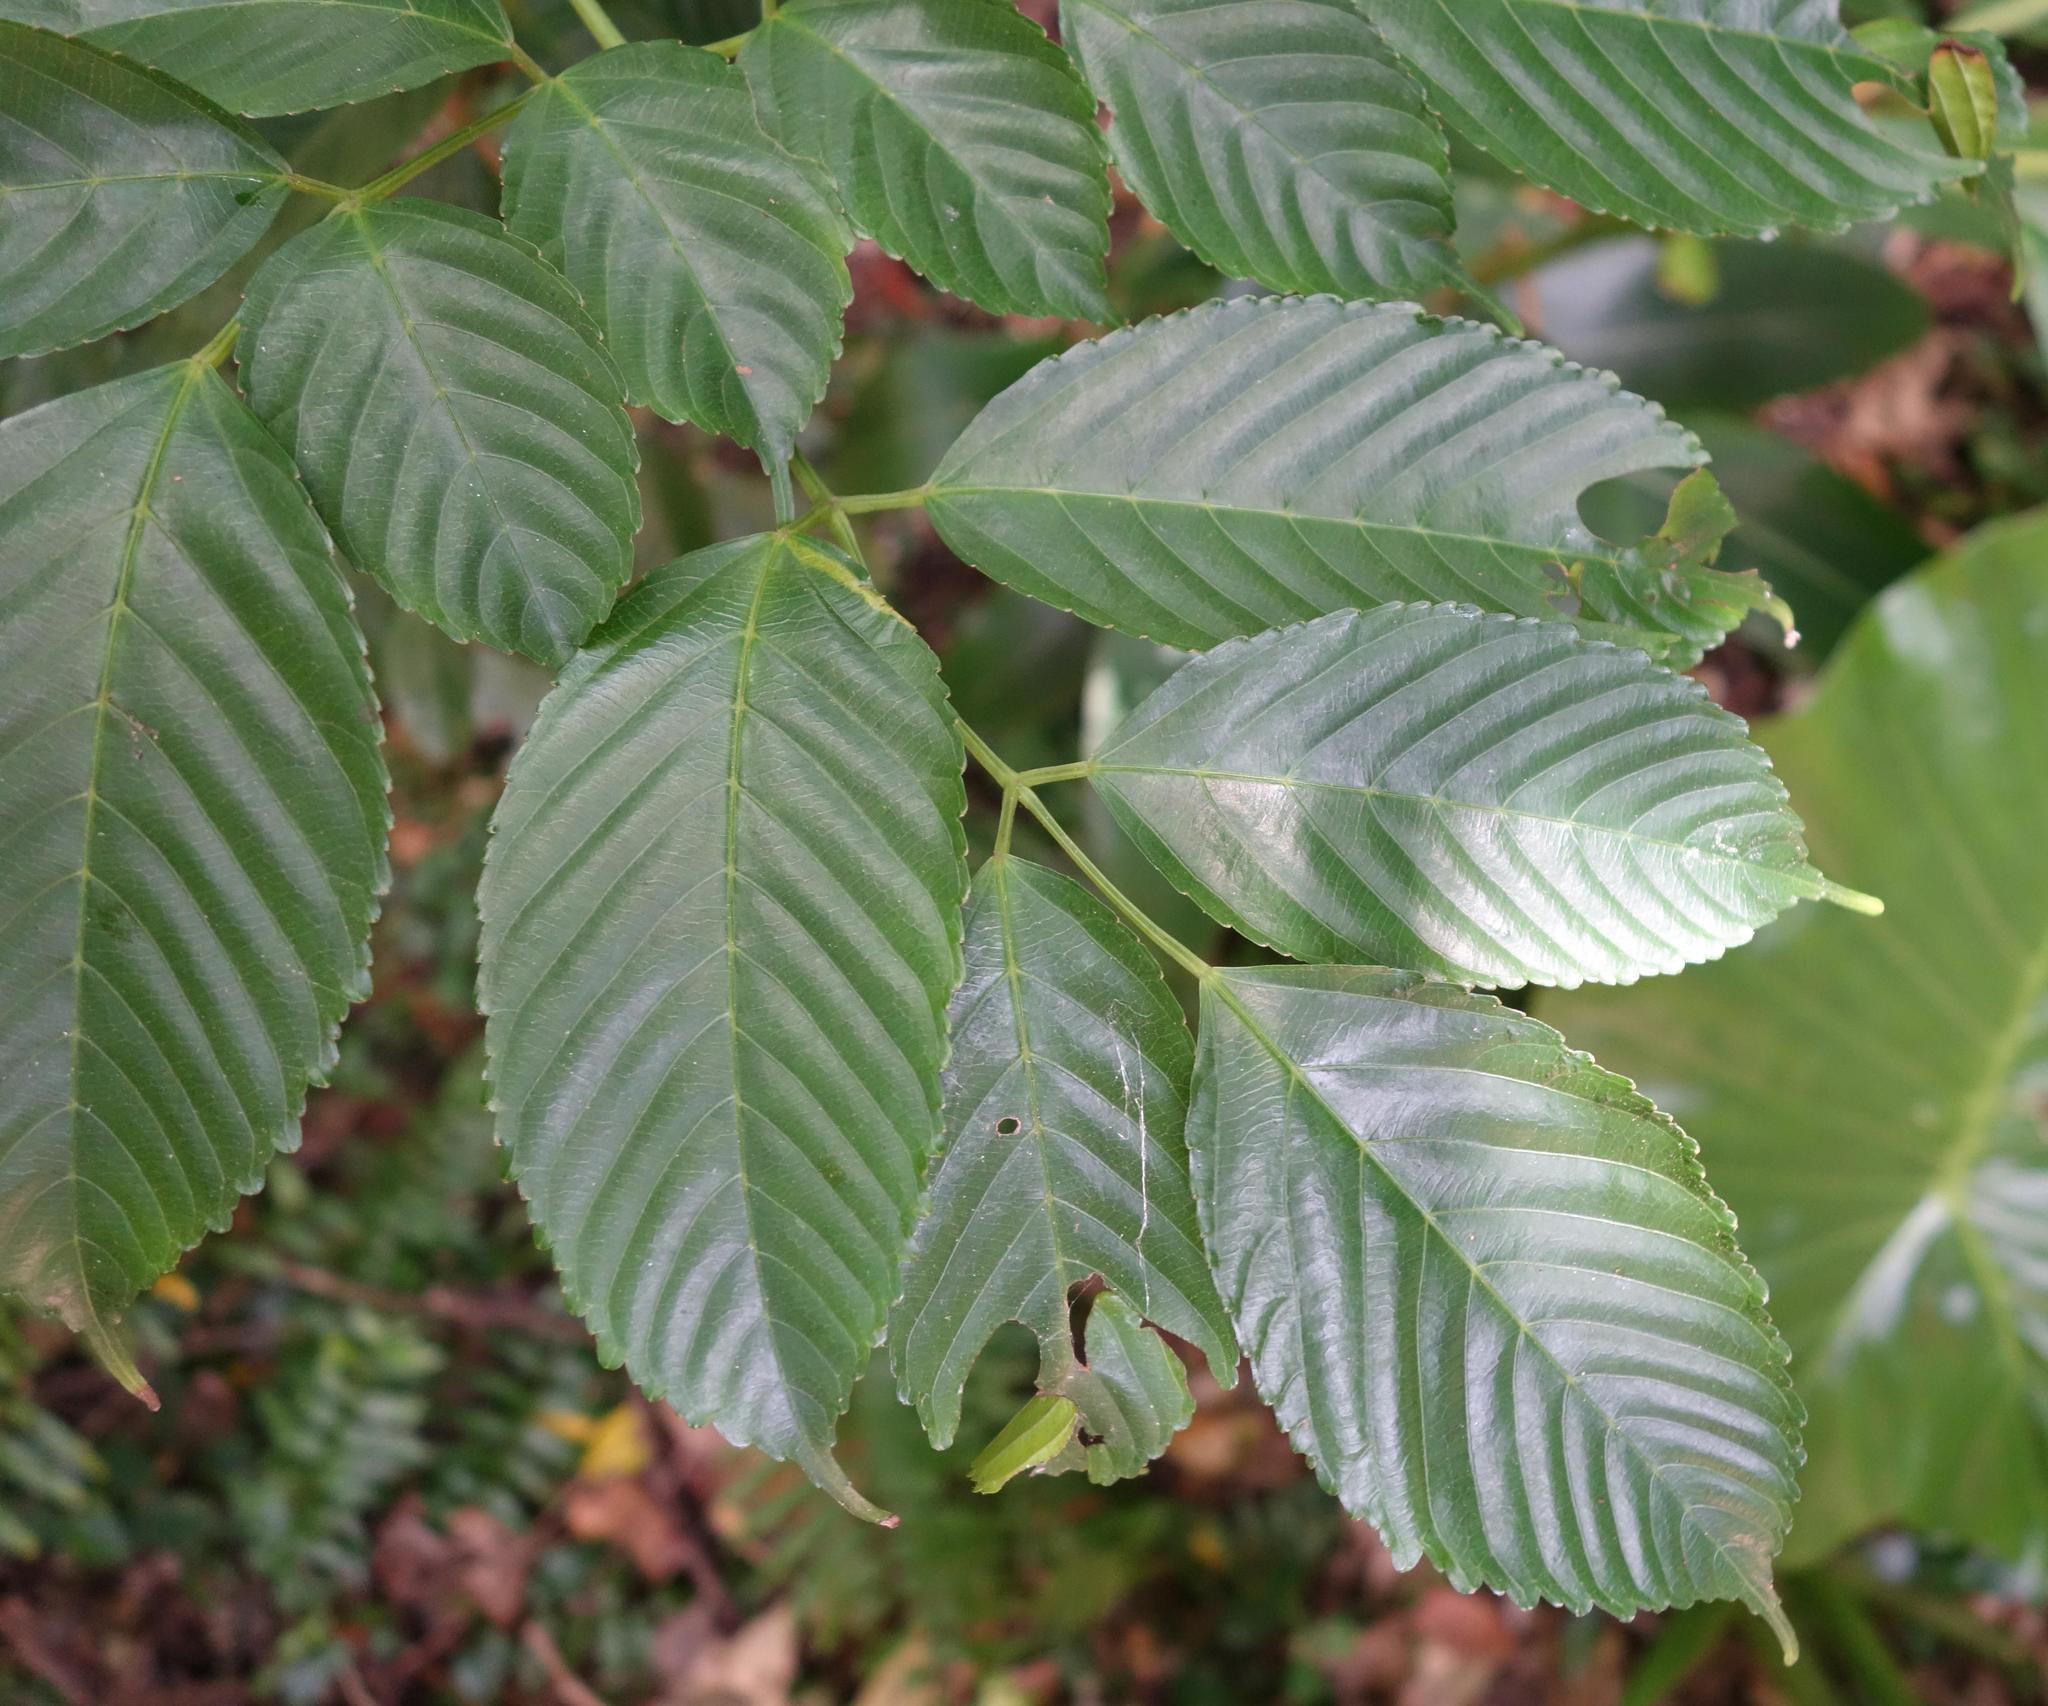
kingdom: Plantae
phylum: Tracheophyta
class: Magnoliopsida
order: Vitales
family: Vitaceae
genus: Leea
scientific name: Leea guineensis
